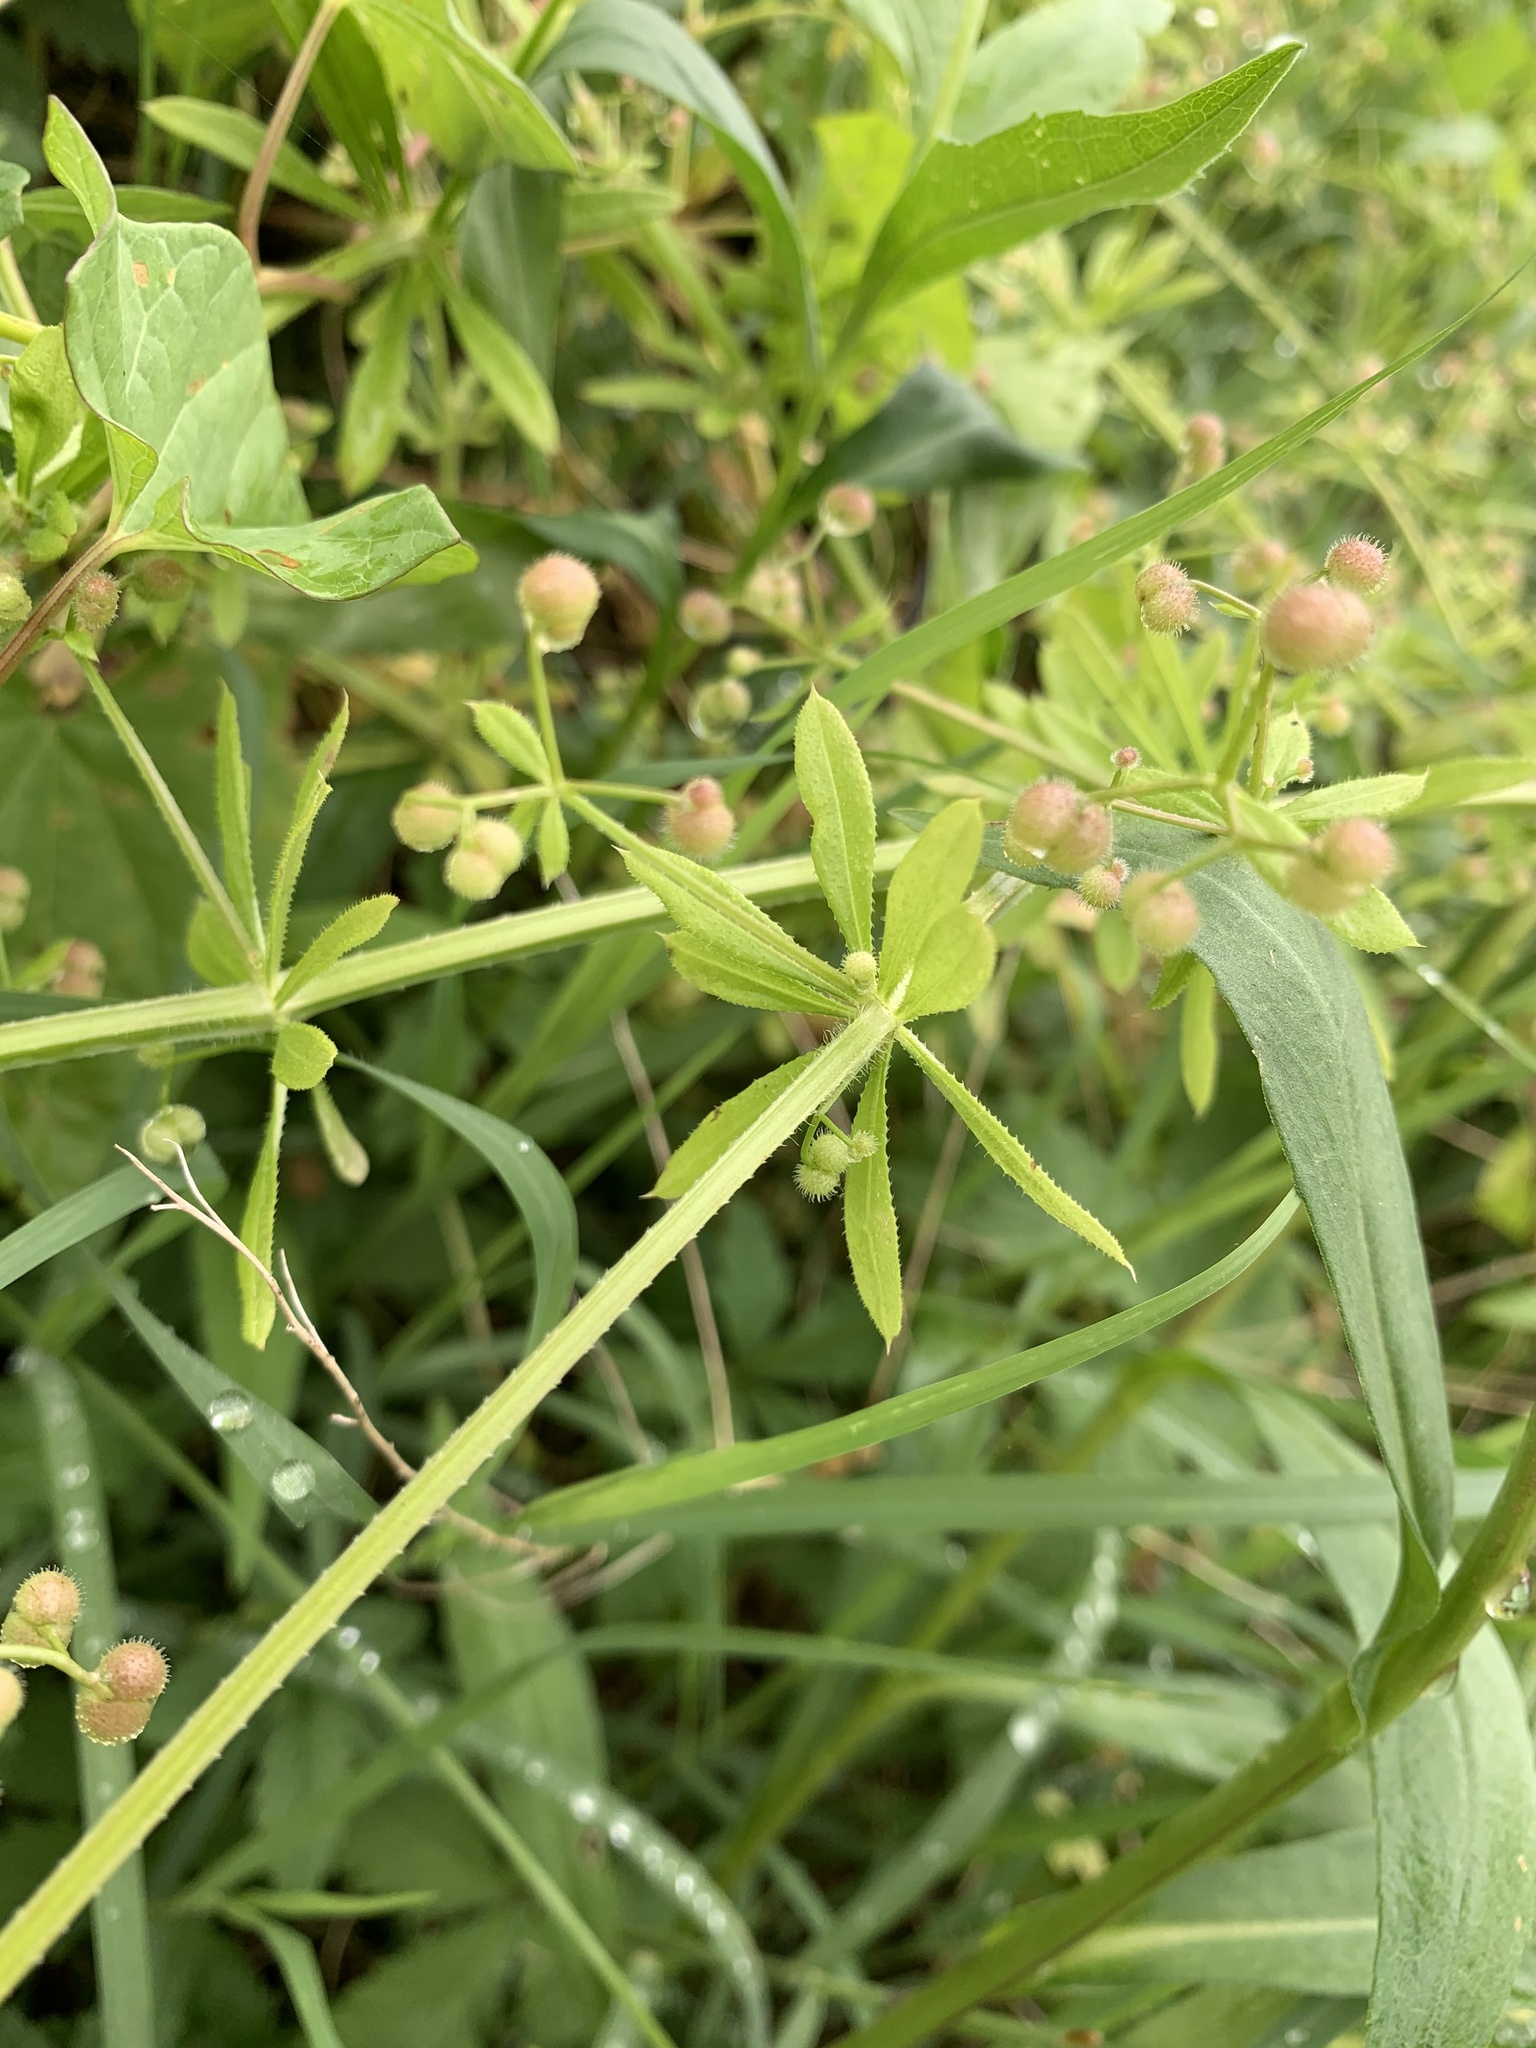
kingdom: Plantae
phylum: Tracheophyta
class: Magnoliopsida
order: Gentianales
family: Rubiaceae
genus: Galium
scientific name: Galium aparine
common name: Cleavers
